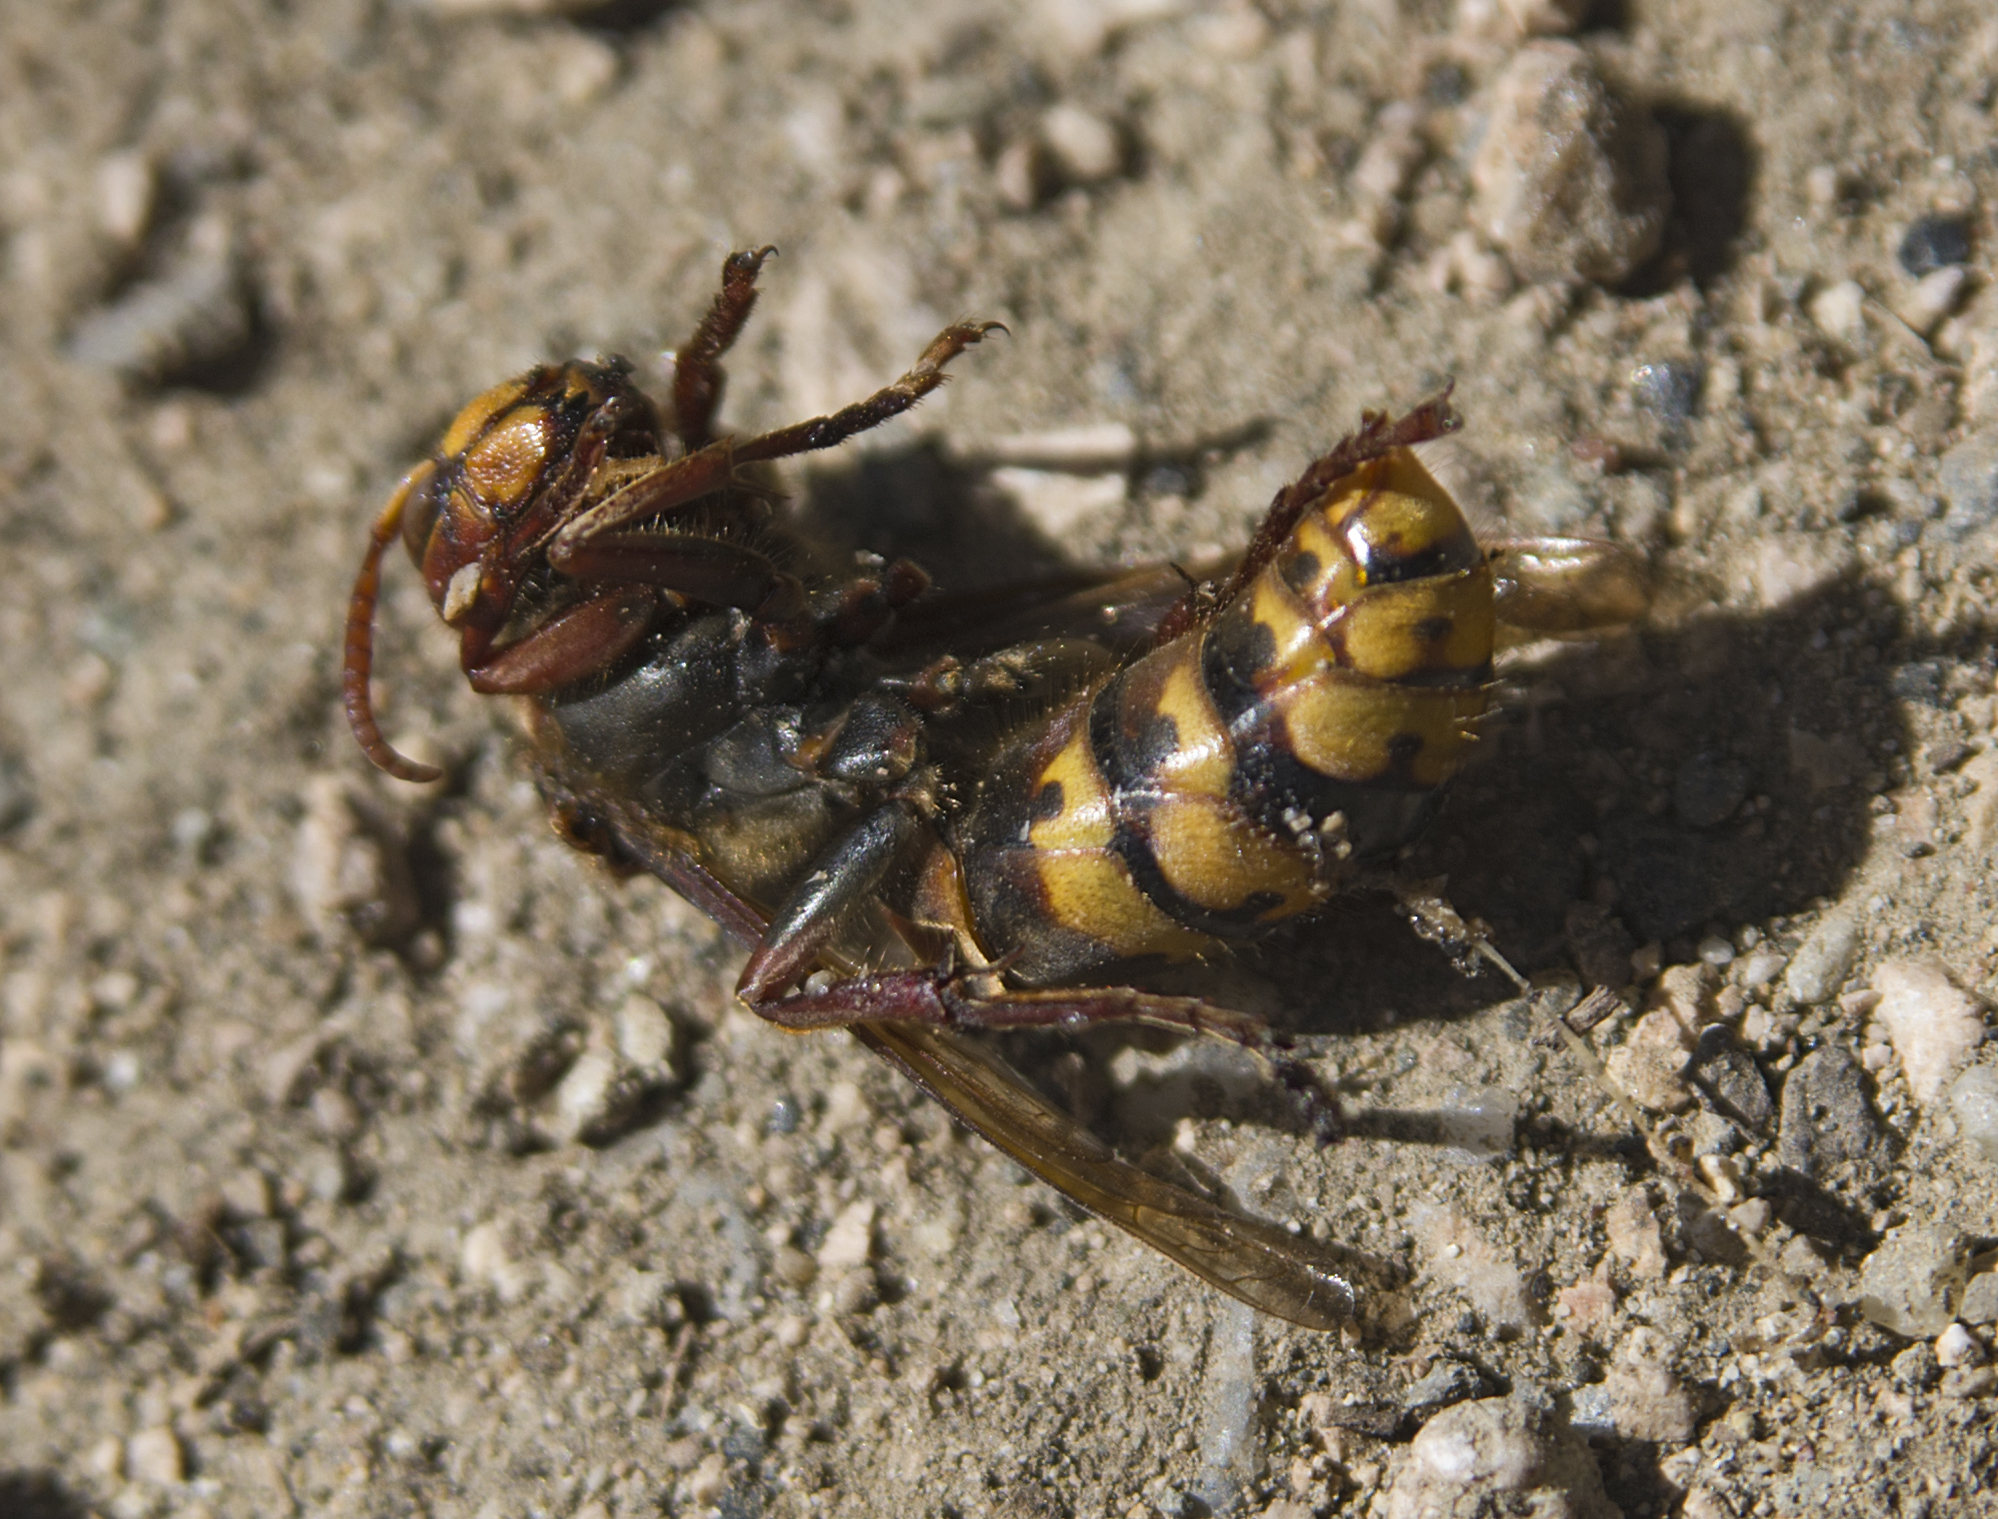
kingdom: Animalia
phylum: Arthropoda
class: Insecta
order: Hymenoptera
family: Vespidae
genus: Vespa
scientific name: Vespa crabro
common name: Hornet
